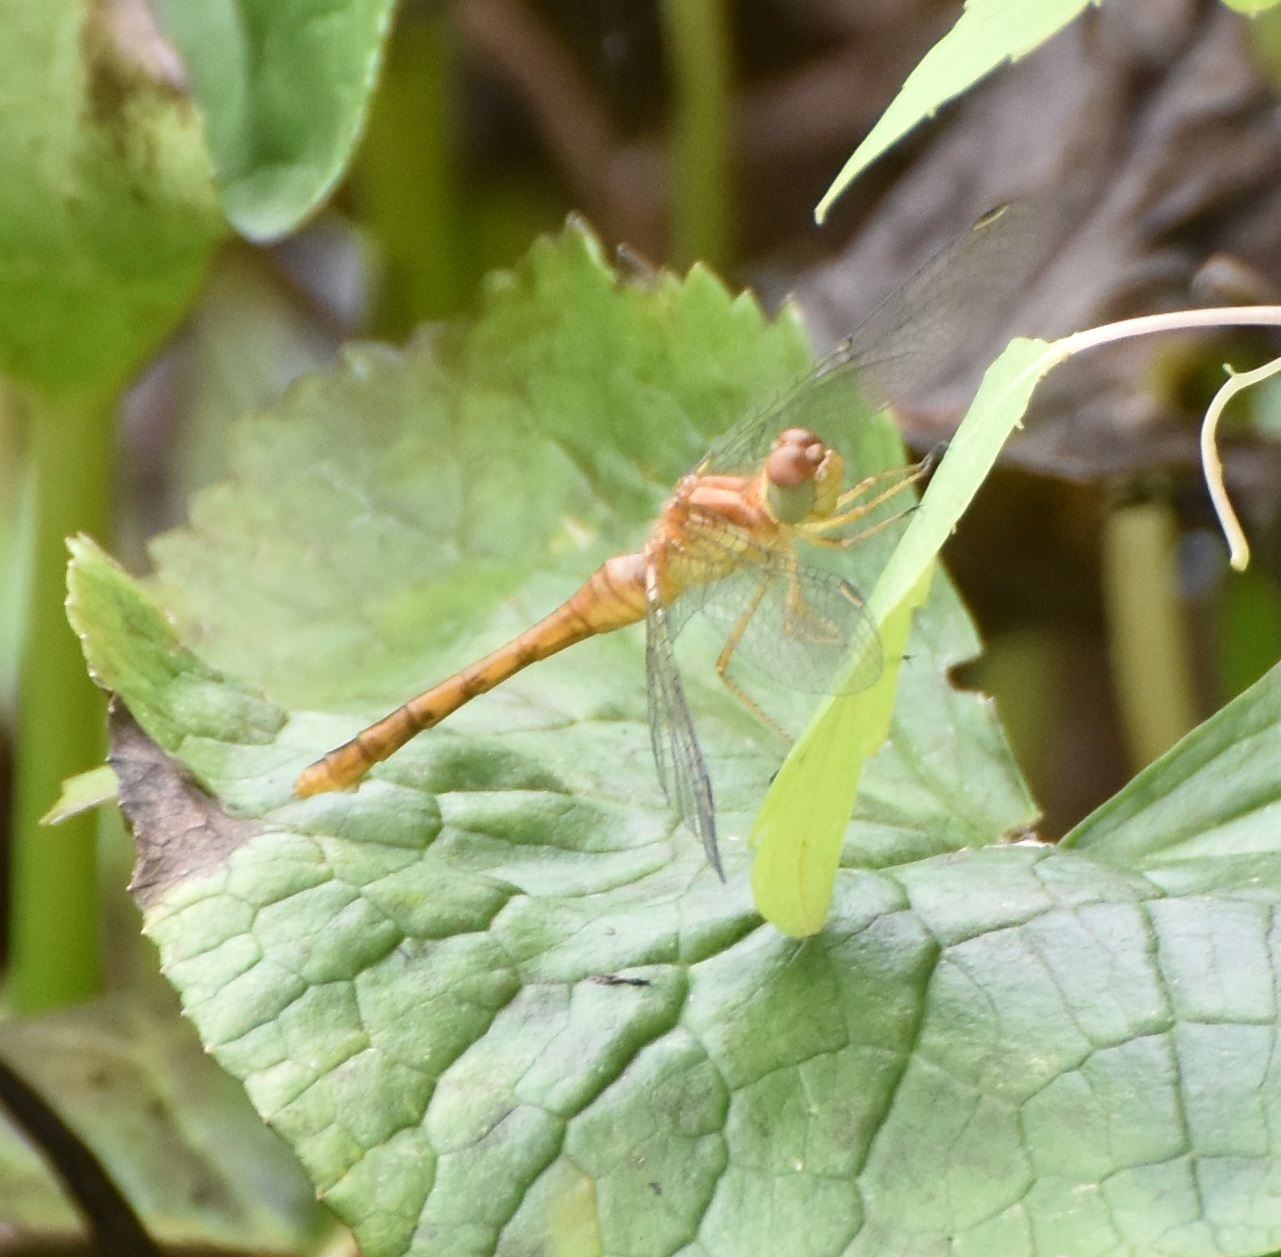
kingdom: Animalia
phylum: Arthropoda
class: Insecta
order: Odonata
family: Libellulidae
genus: Sympetrum
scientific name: Sympetrum vicinum
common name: Autumn meadowhawk
